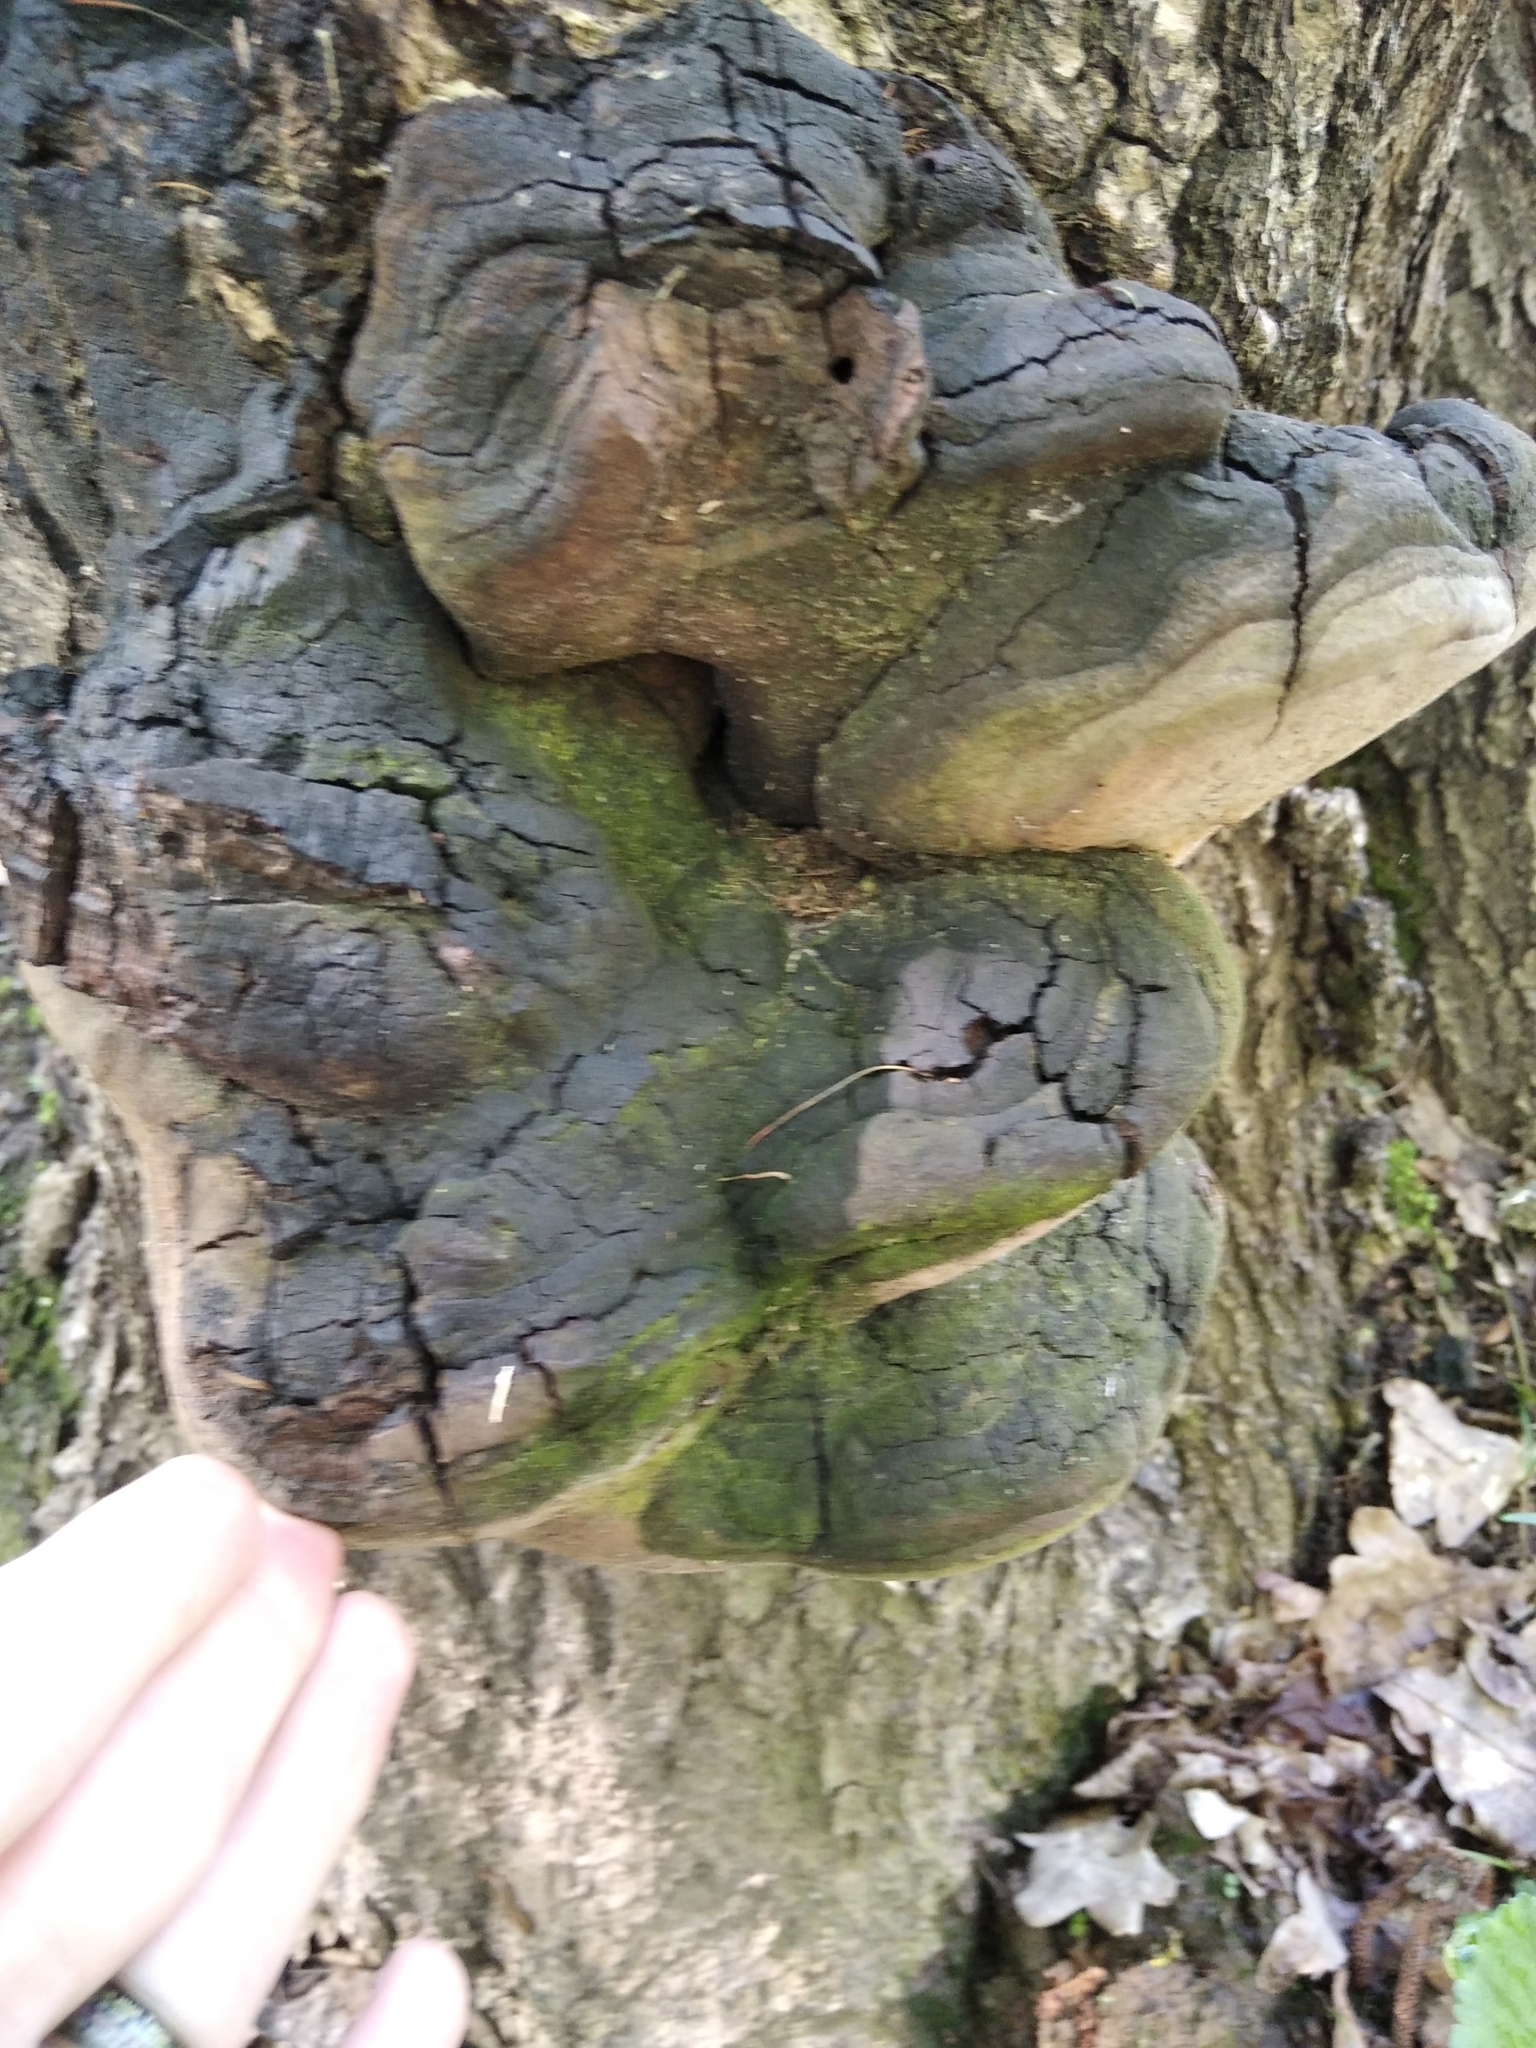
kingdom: Fungi
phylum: Basidiomycota
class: Agaricomycetes
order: Hymenochaetales
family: Hymenochaetaceae
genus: Fomitiporia
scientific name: Fomitiporia robusta
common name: Robust bracket
